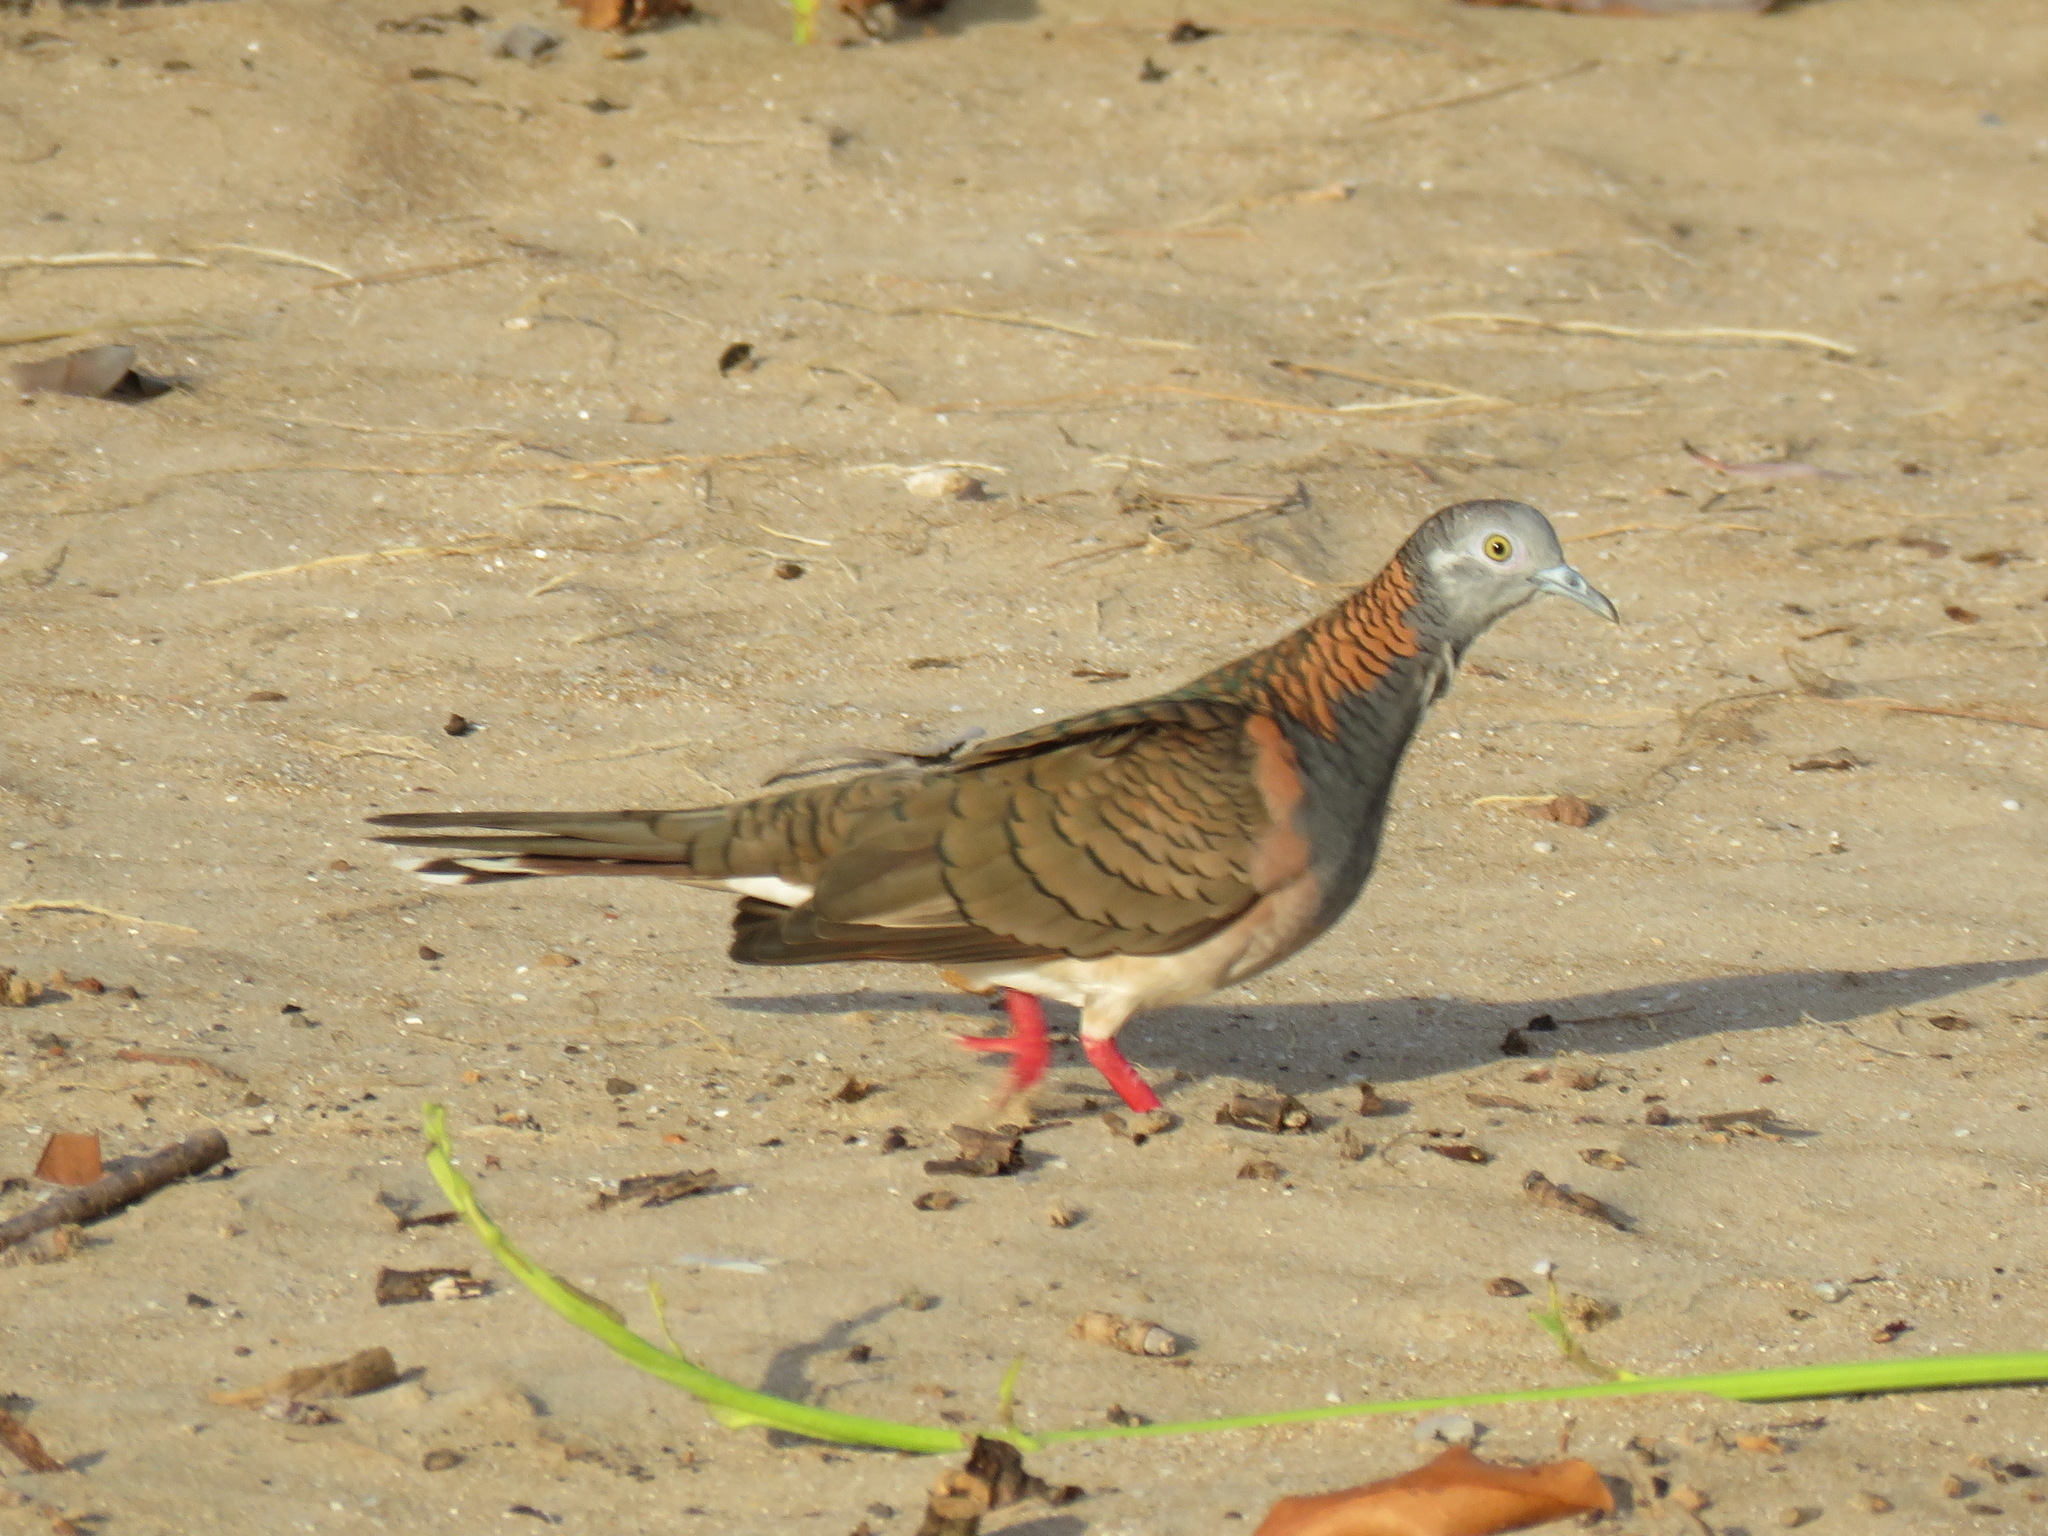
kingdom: Animalia
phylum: Chordata
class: Aves
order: Columbiformes
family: Columbidae
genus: Geopelia
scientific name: Geopelia humeralis
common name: Bar-shouldered dove
